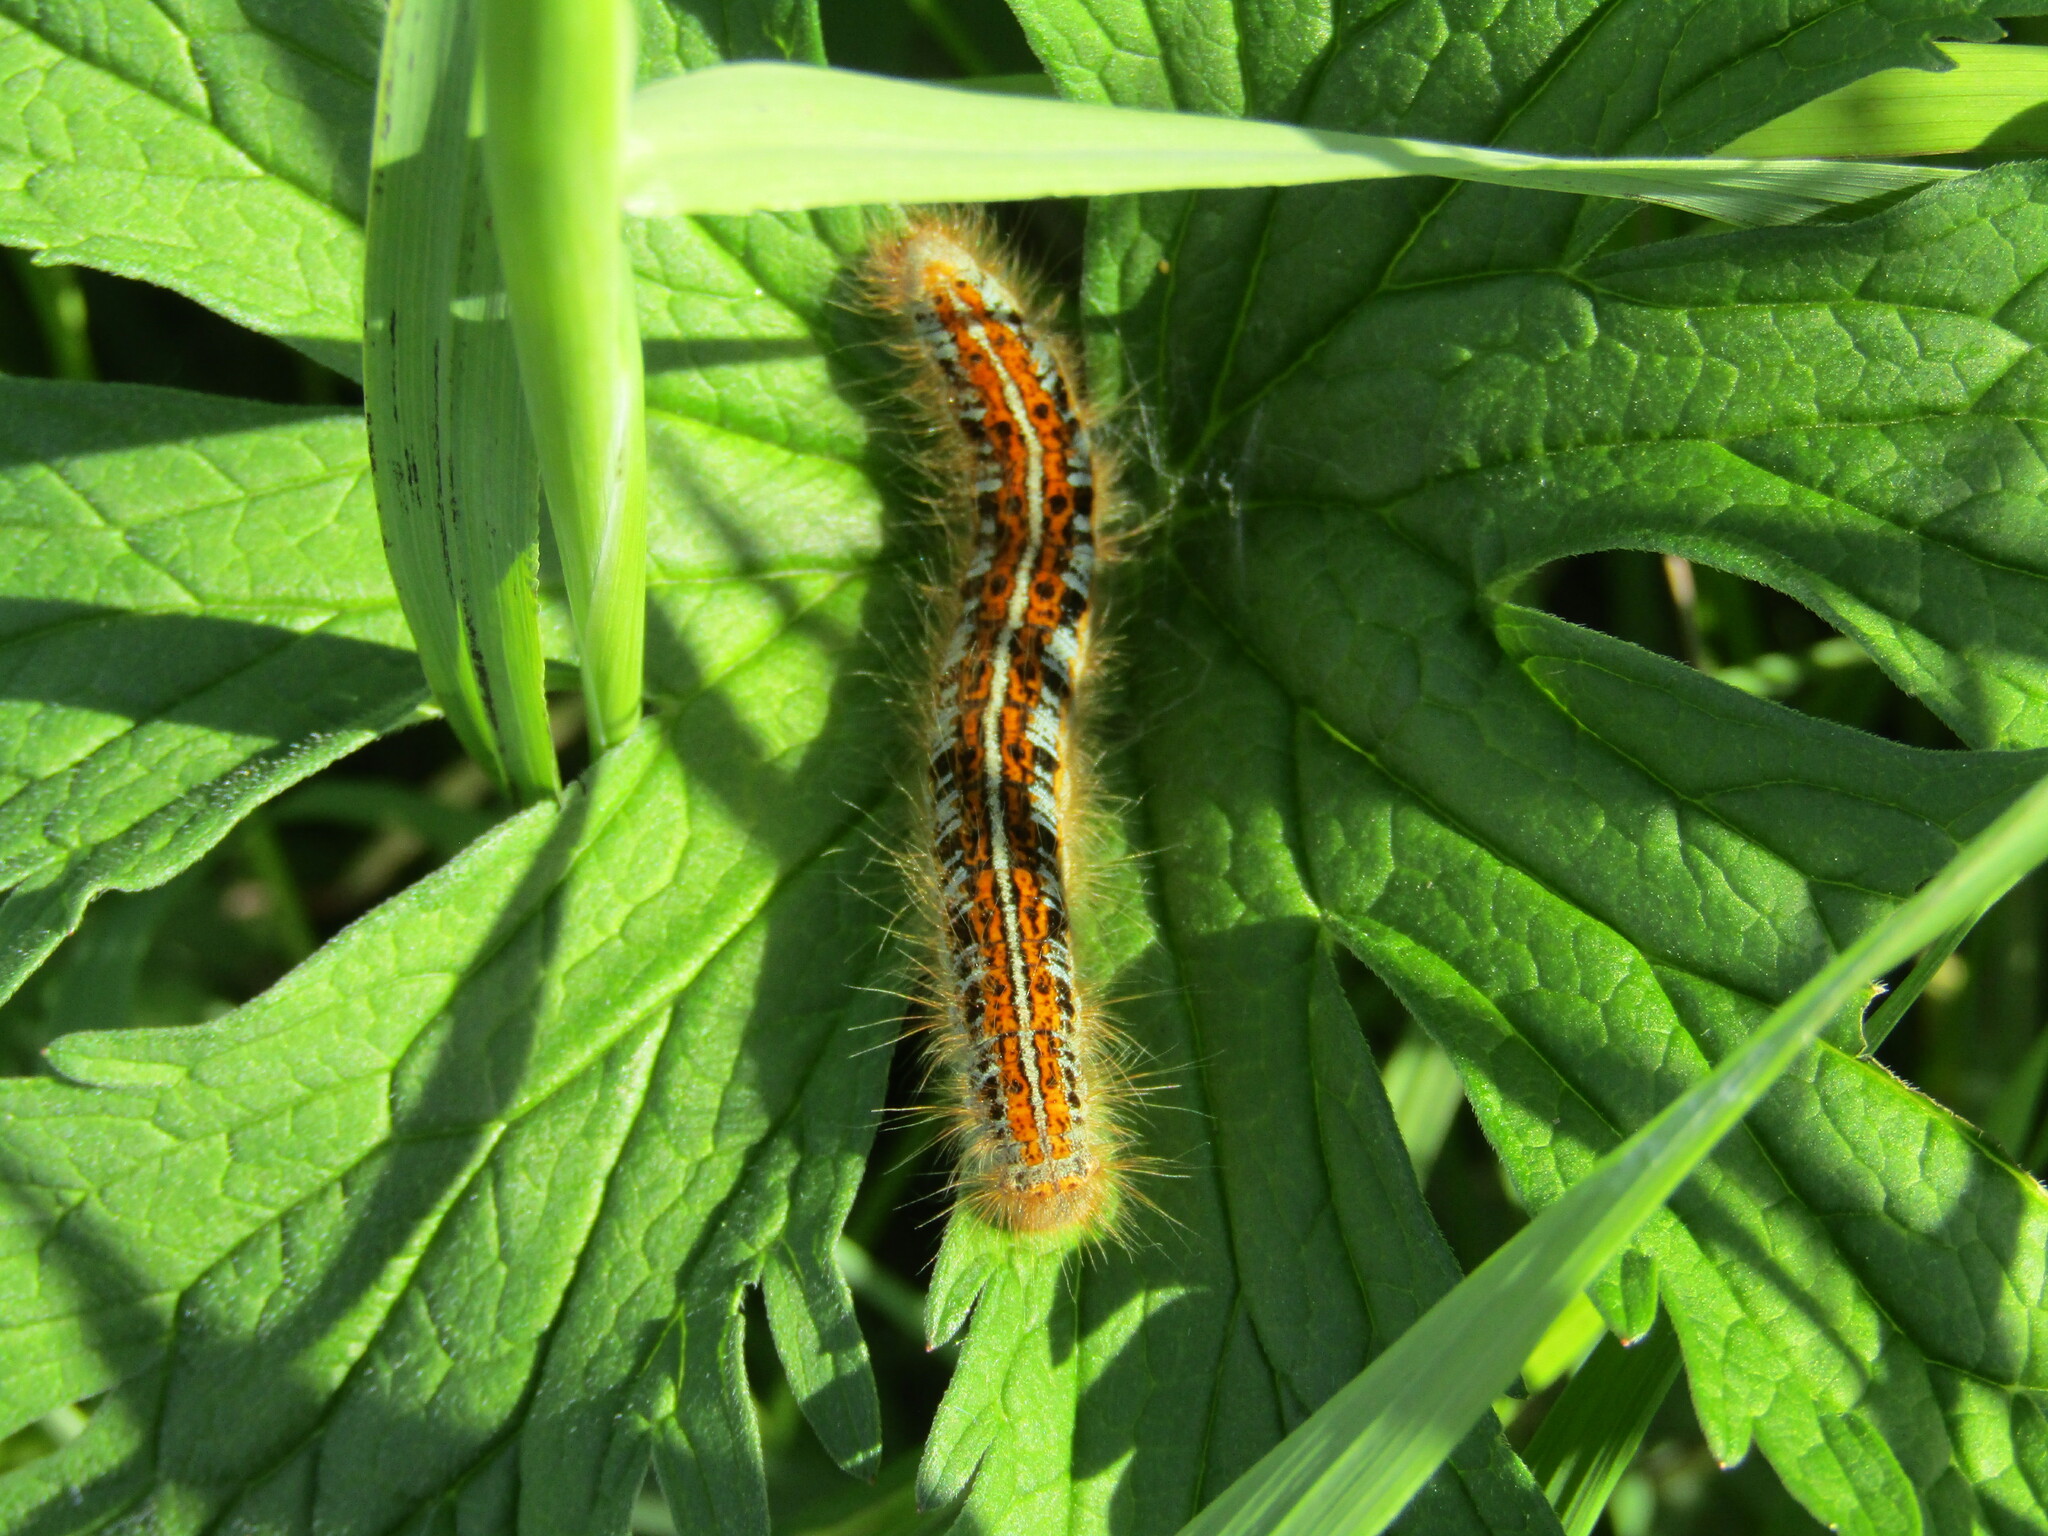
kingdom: Animalia
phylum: Arthropoda
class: Insecta
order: Lepidoptera
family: Lasiocampidae
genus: Malacosoma
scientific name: Malacosoma castrense
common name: Ground lackey
